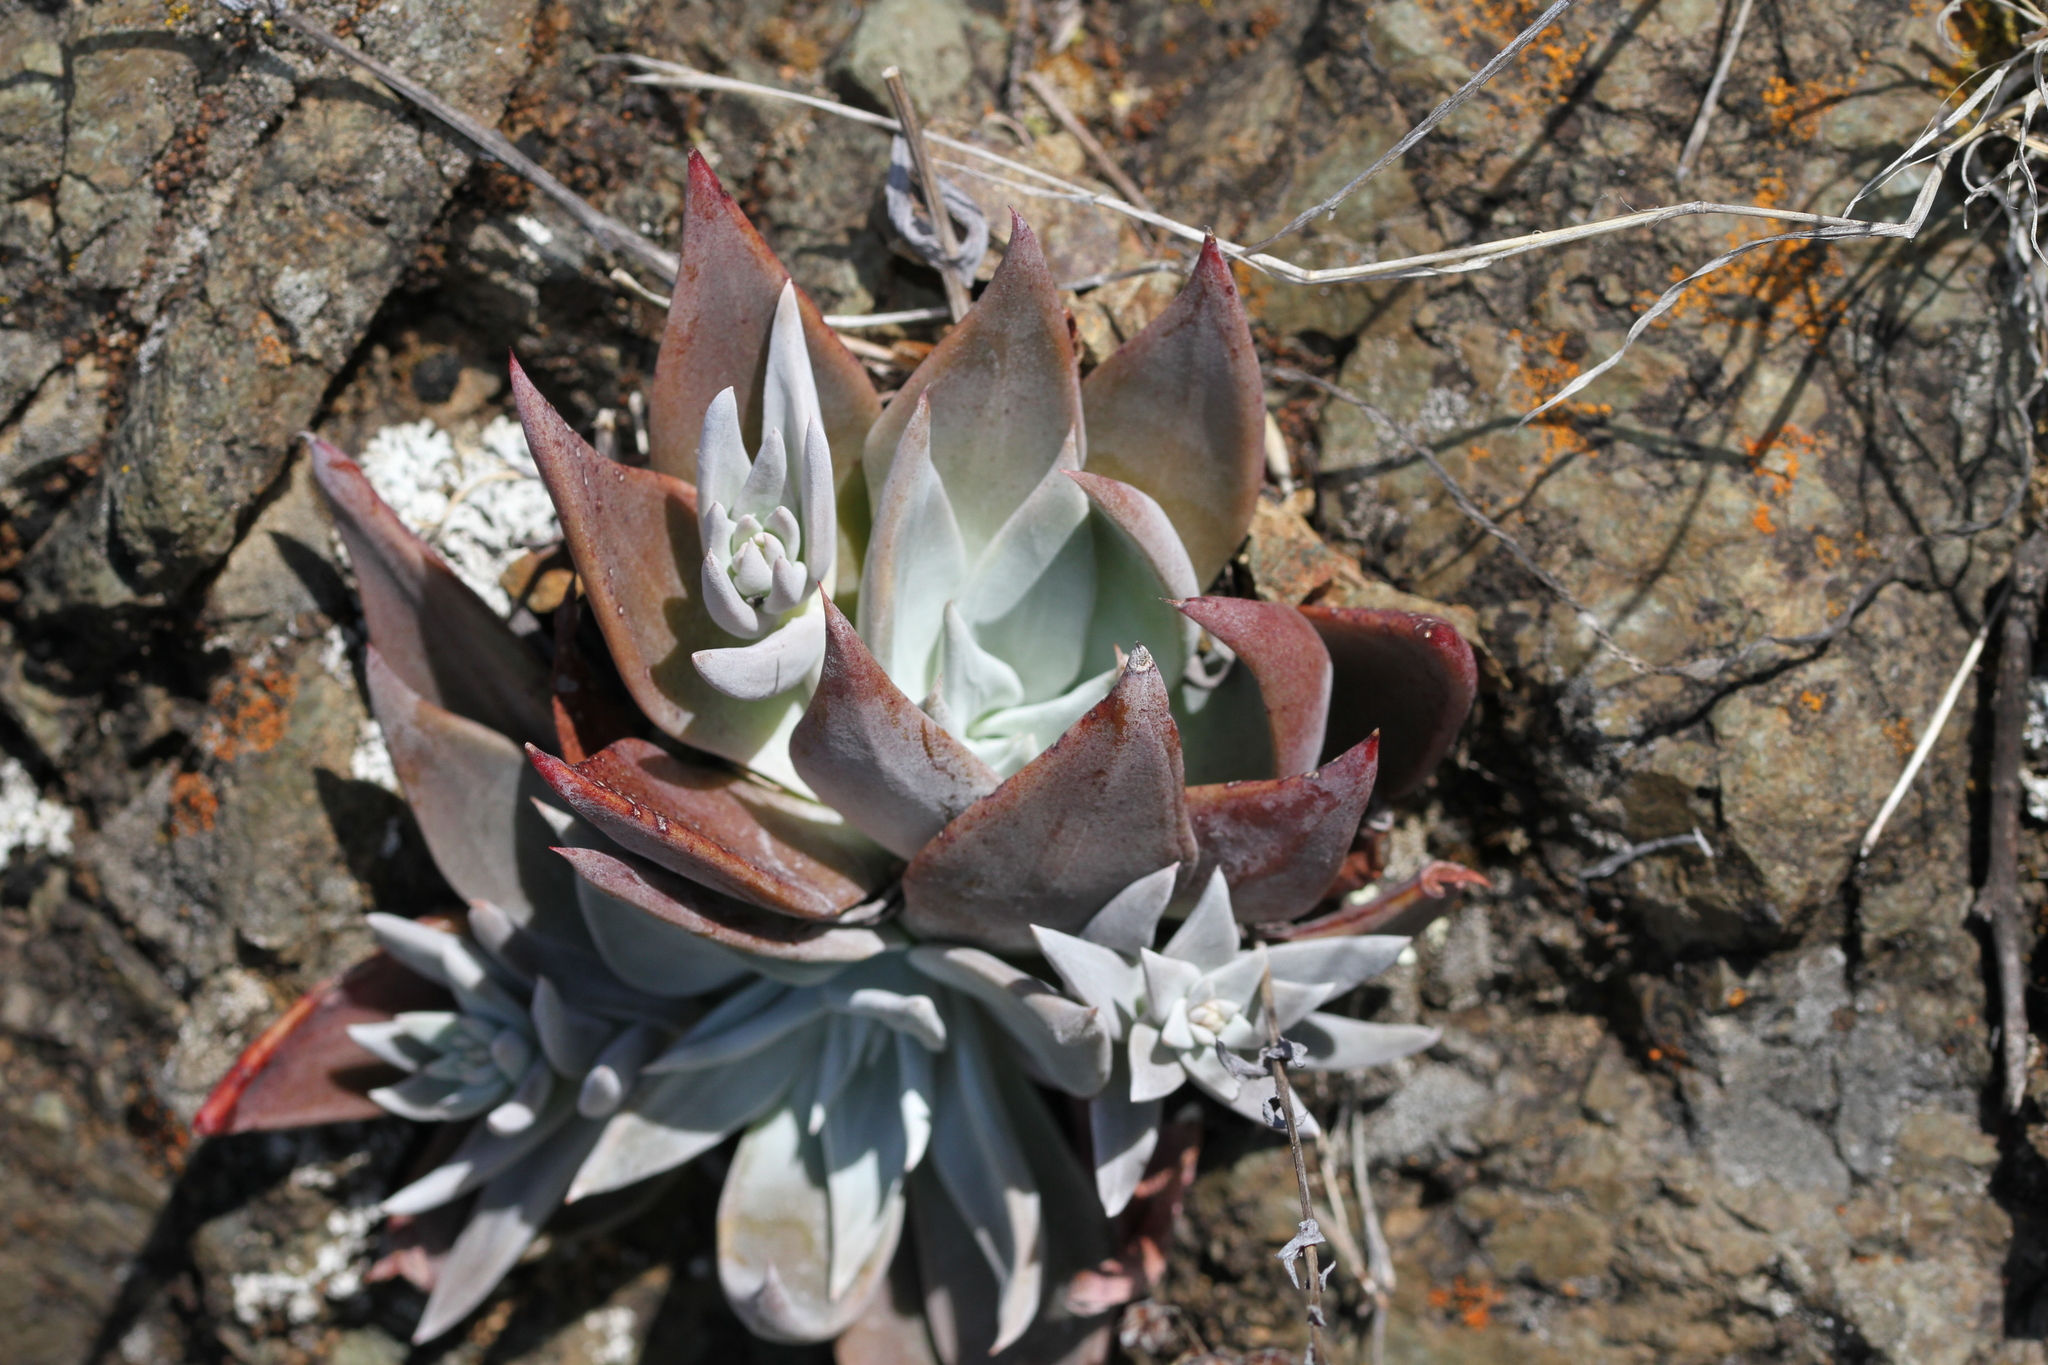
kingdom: Plantae
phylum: Tracheophyta
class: Magnoliopsida
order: Saxifragales
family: Crassulaceae
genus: Dudleya
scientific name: Dudleya cymosa
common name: Canyon dudleya
